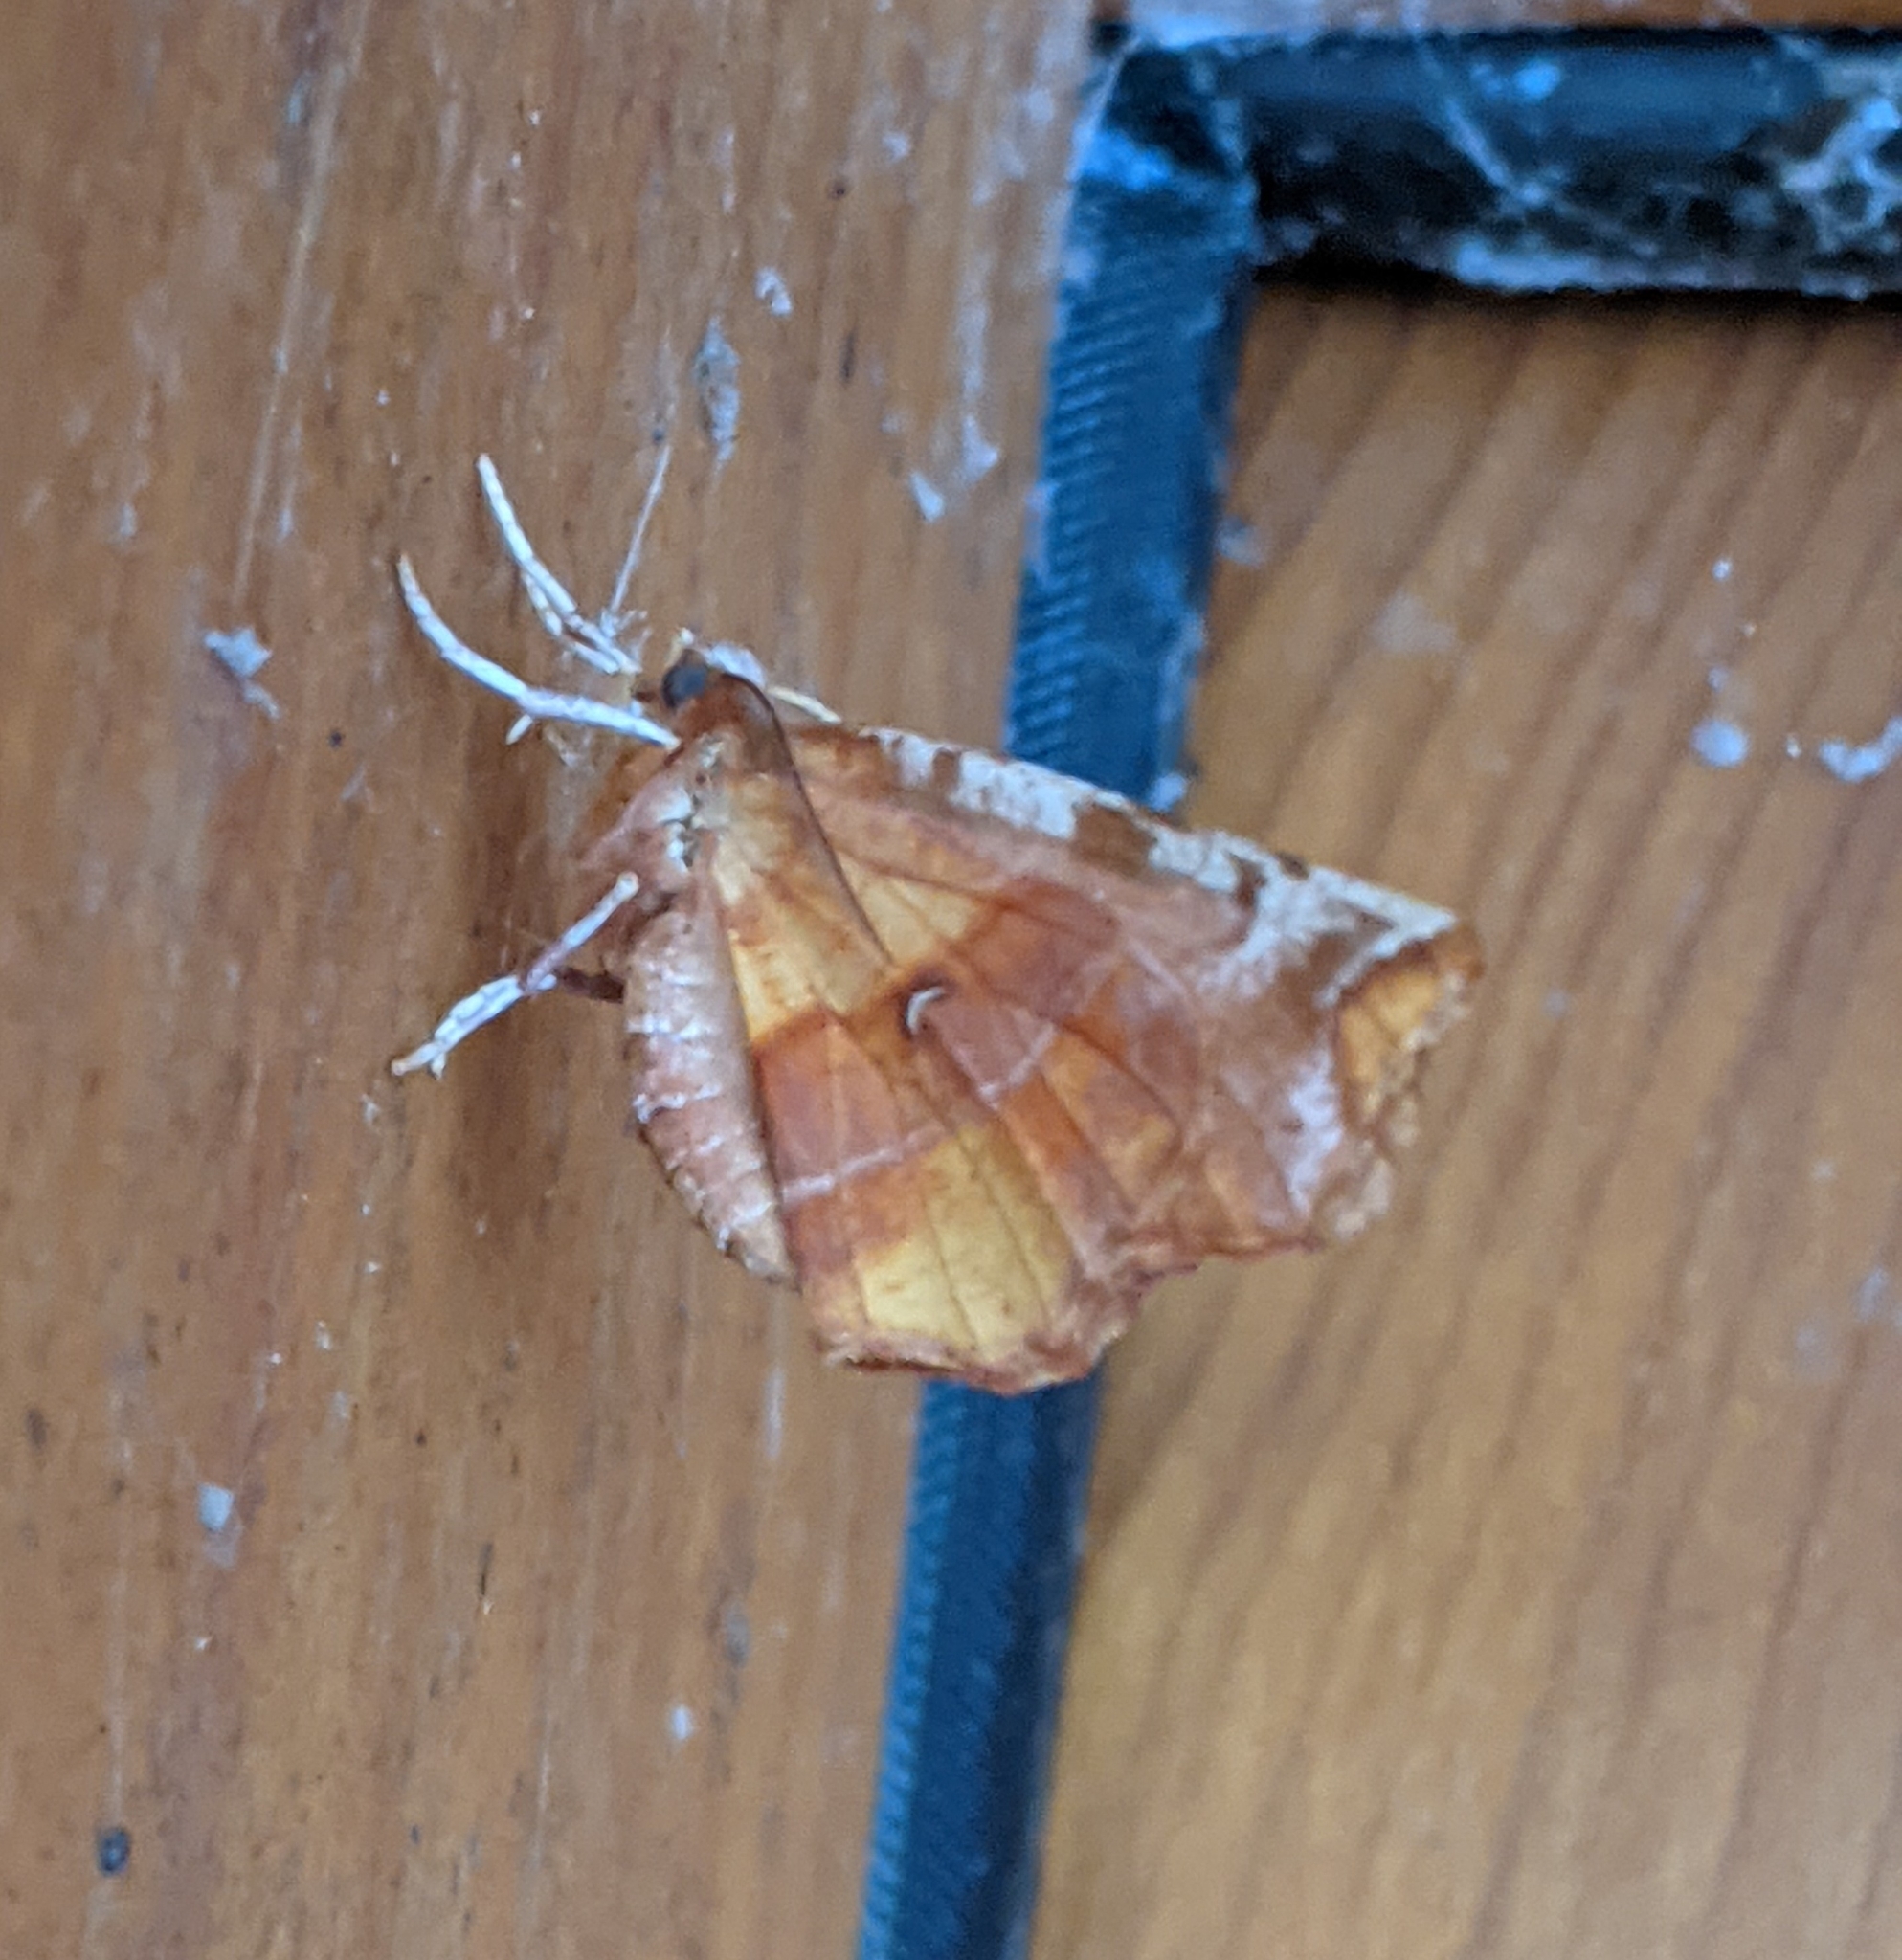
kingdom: Animalia
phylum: Arthropoda
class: Insecta
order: Lepidoptera
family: Geometridae
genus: Selenia
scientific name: Selenia alciphearia
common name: Brown-tipped thorn
